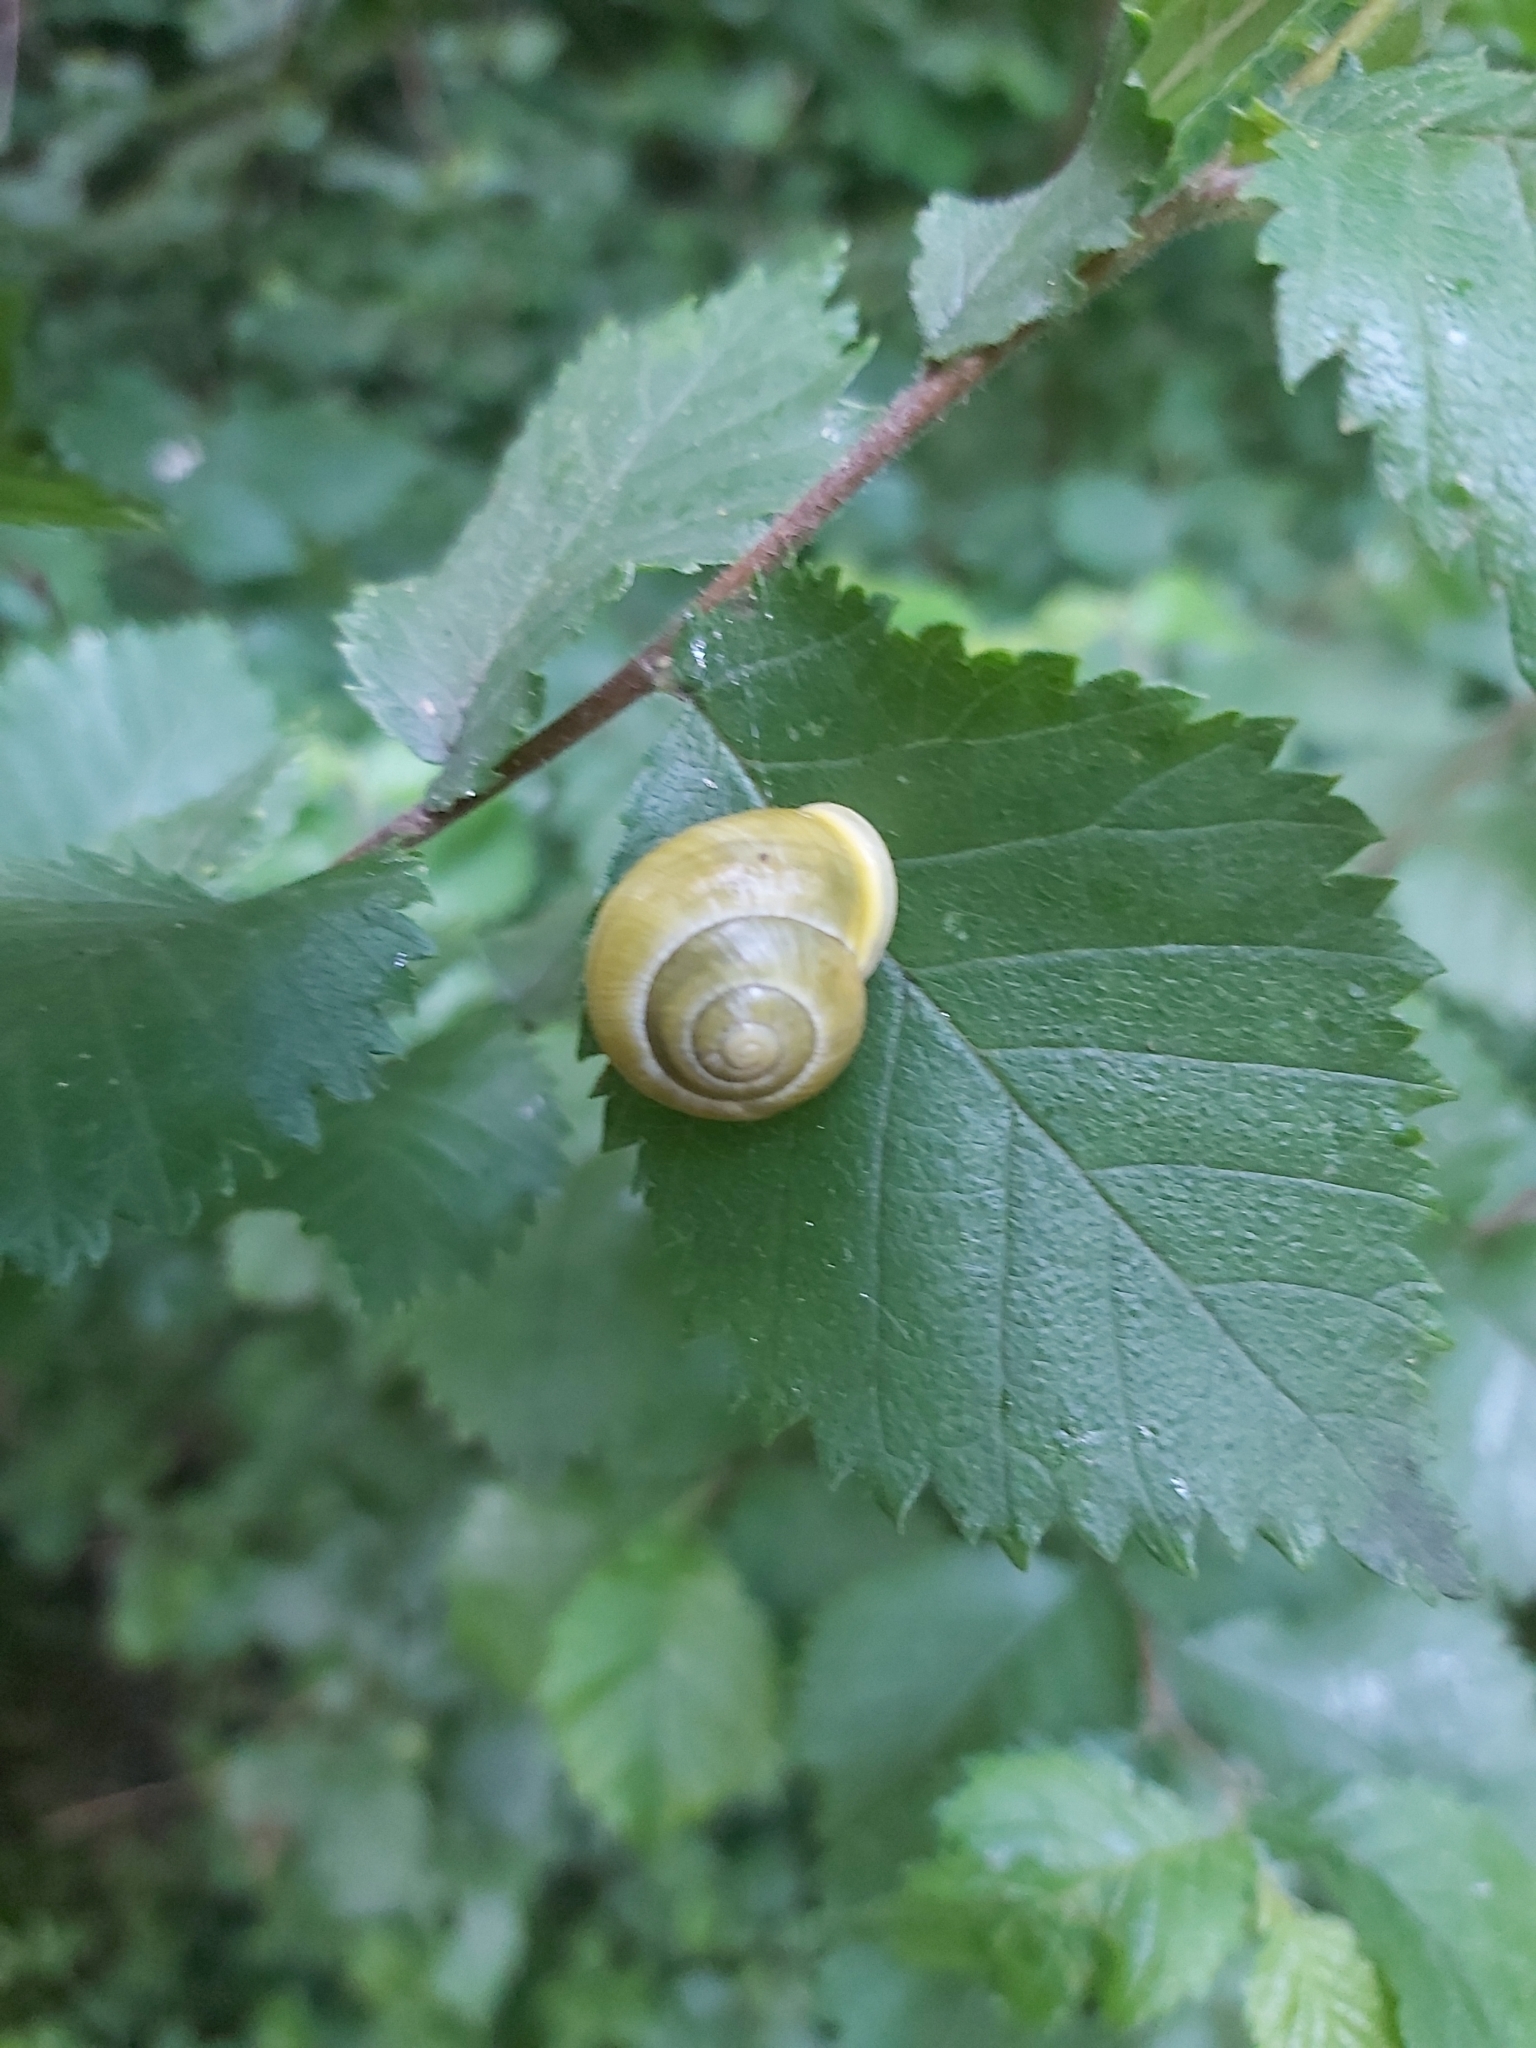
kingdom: Animalia
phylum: Mollusca
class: Gastropoda
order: Stylommatophora
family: Helicidae
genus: Cepaea
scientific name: Cepaea hortensis
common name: White-lip gardensnail
